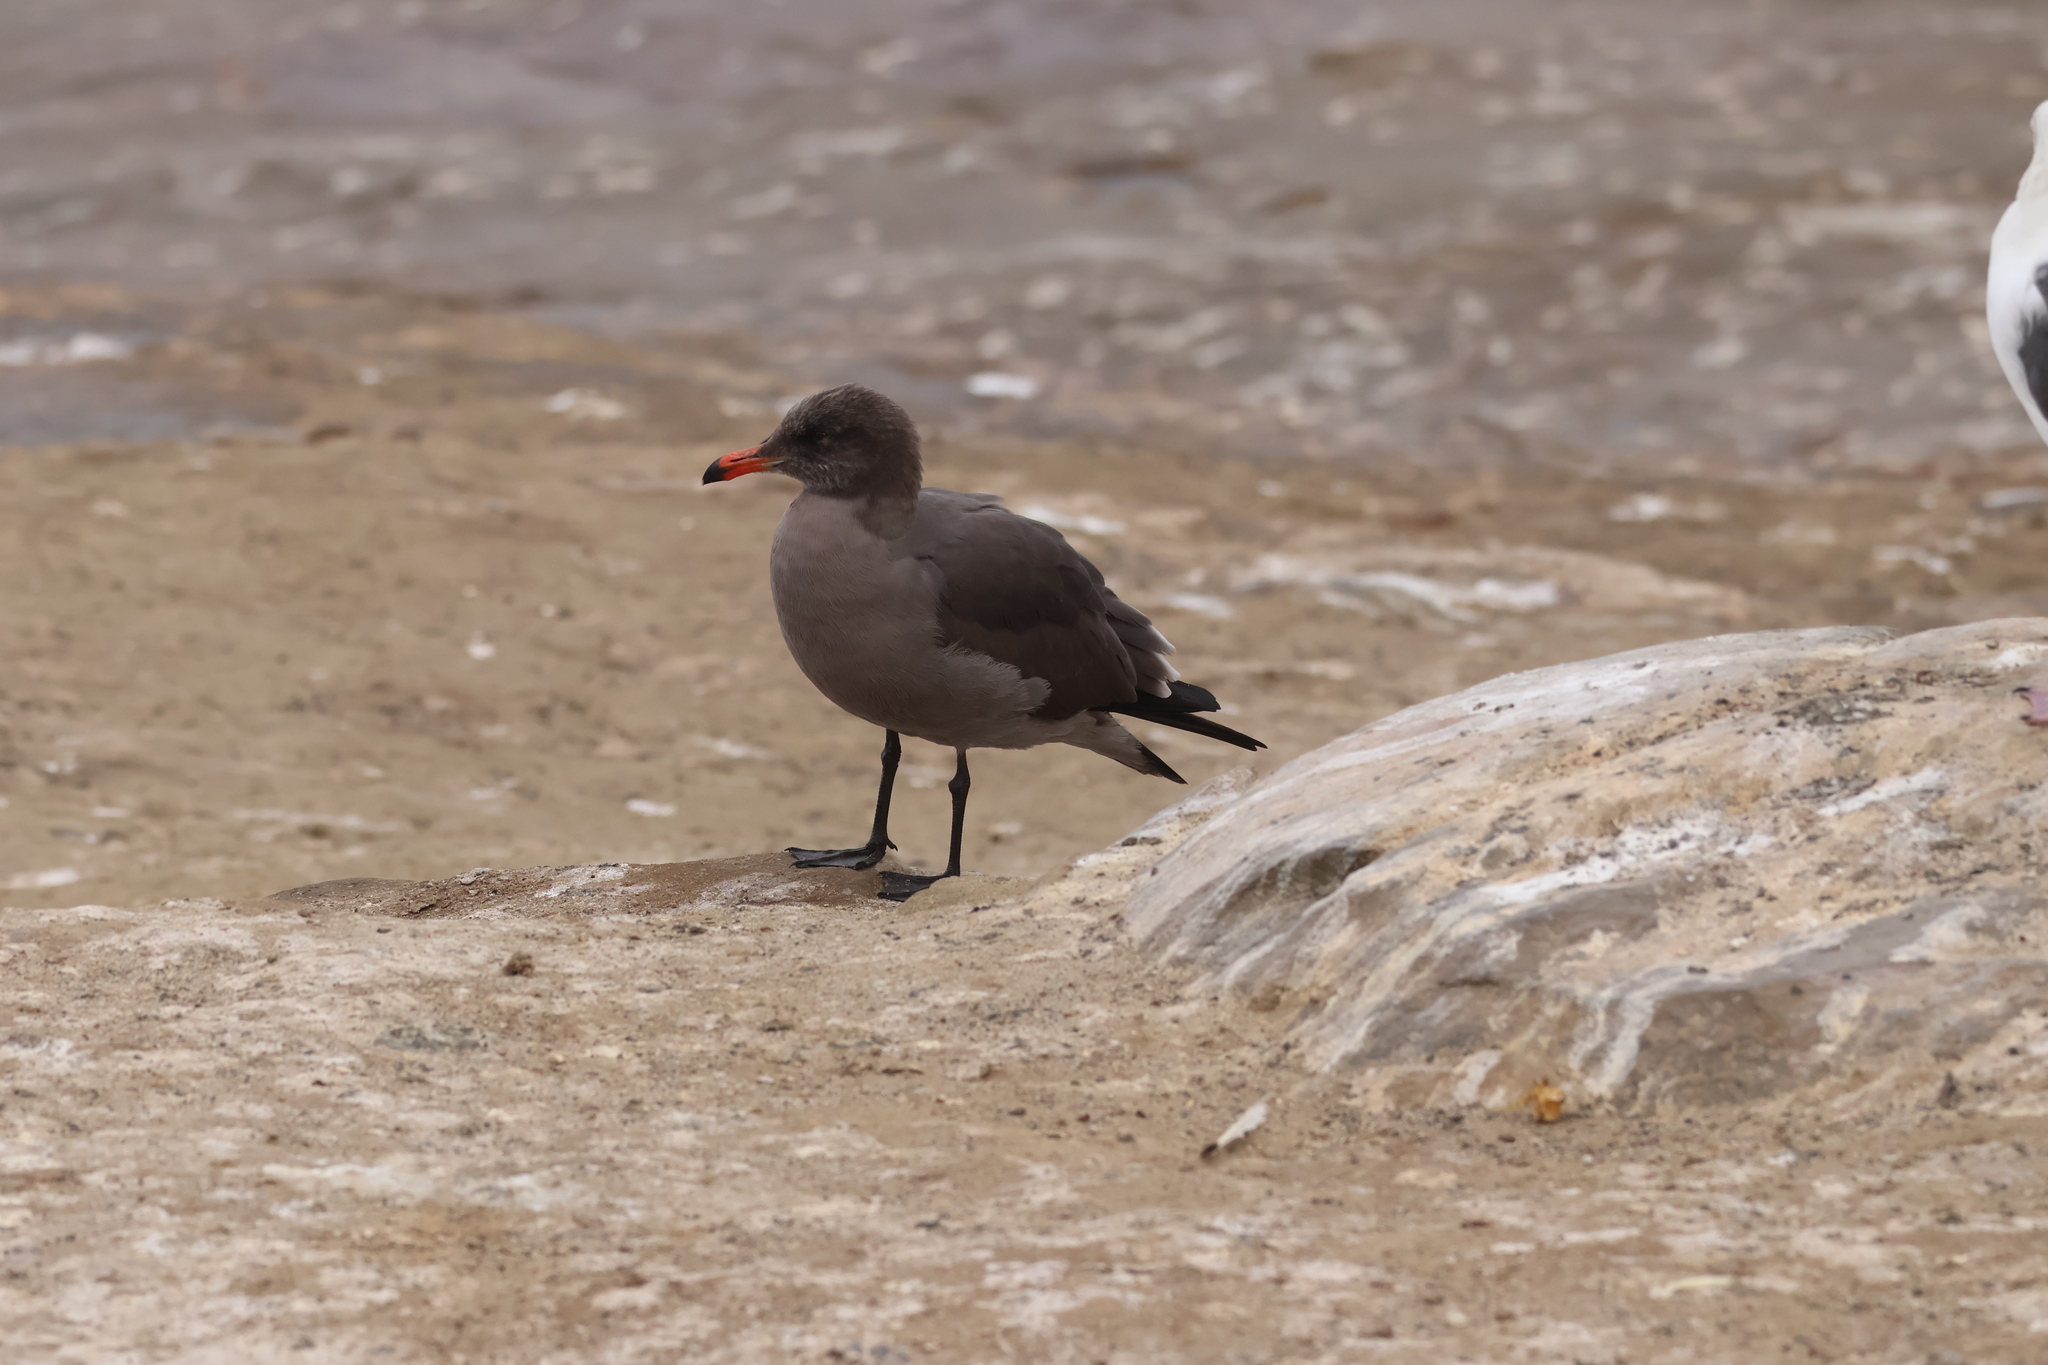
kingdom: Animalia
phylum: Chordata
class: Aves
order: Charadriiformes
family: Laridae
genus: Larus
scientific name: Larus heermanni
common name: Heermann's gull
